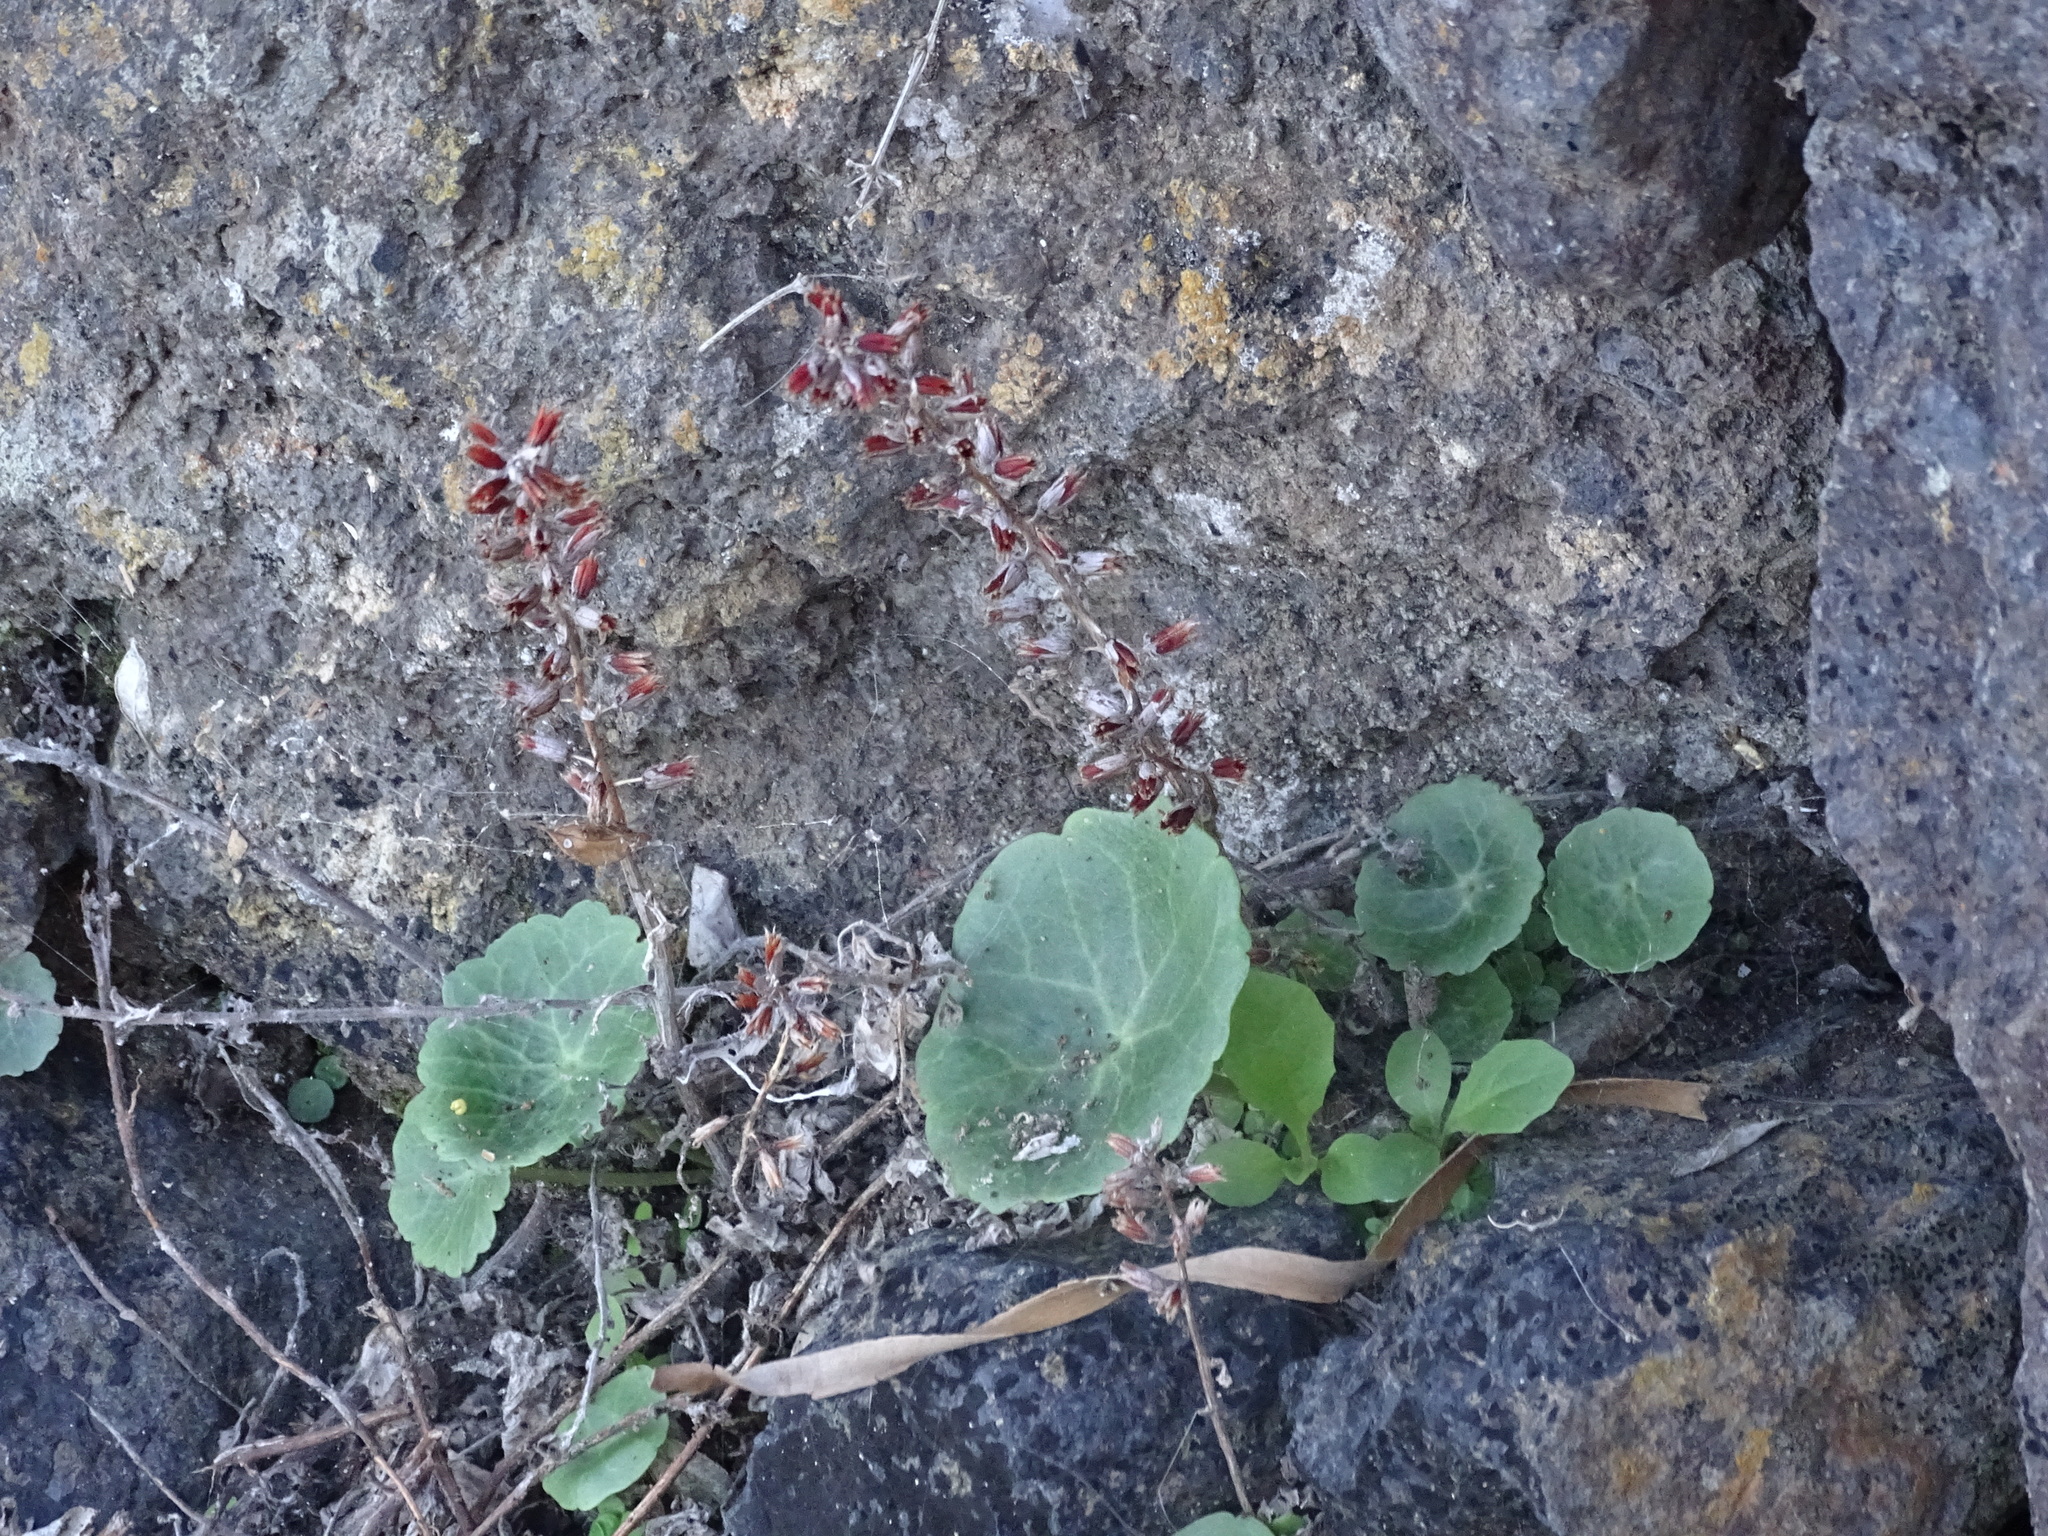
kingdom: Plantae
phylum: Tracheophyta
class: Magnoliopsida
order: Saxifragales
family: Crassulaceae
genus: Umbilicus
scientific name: Umbilicus horizontalis
